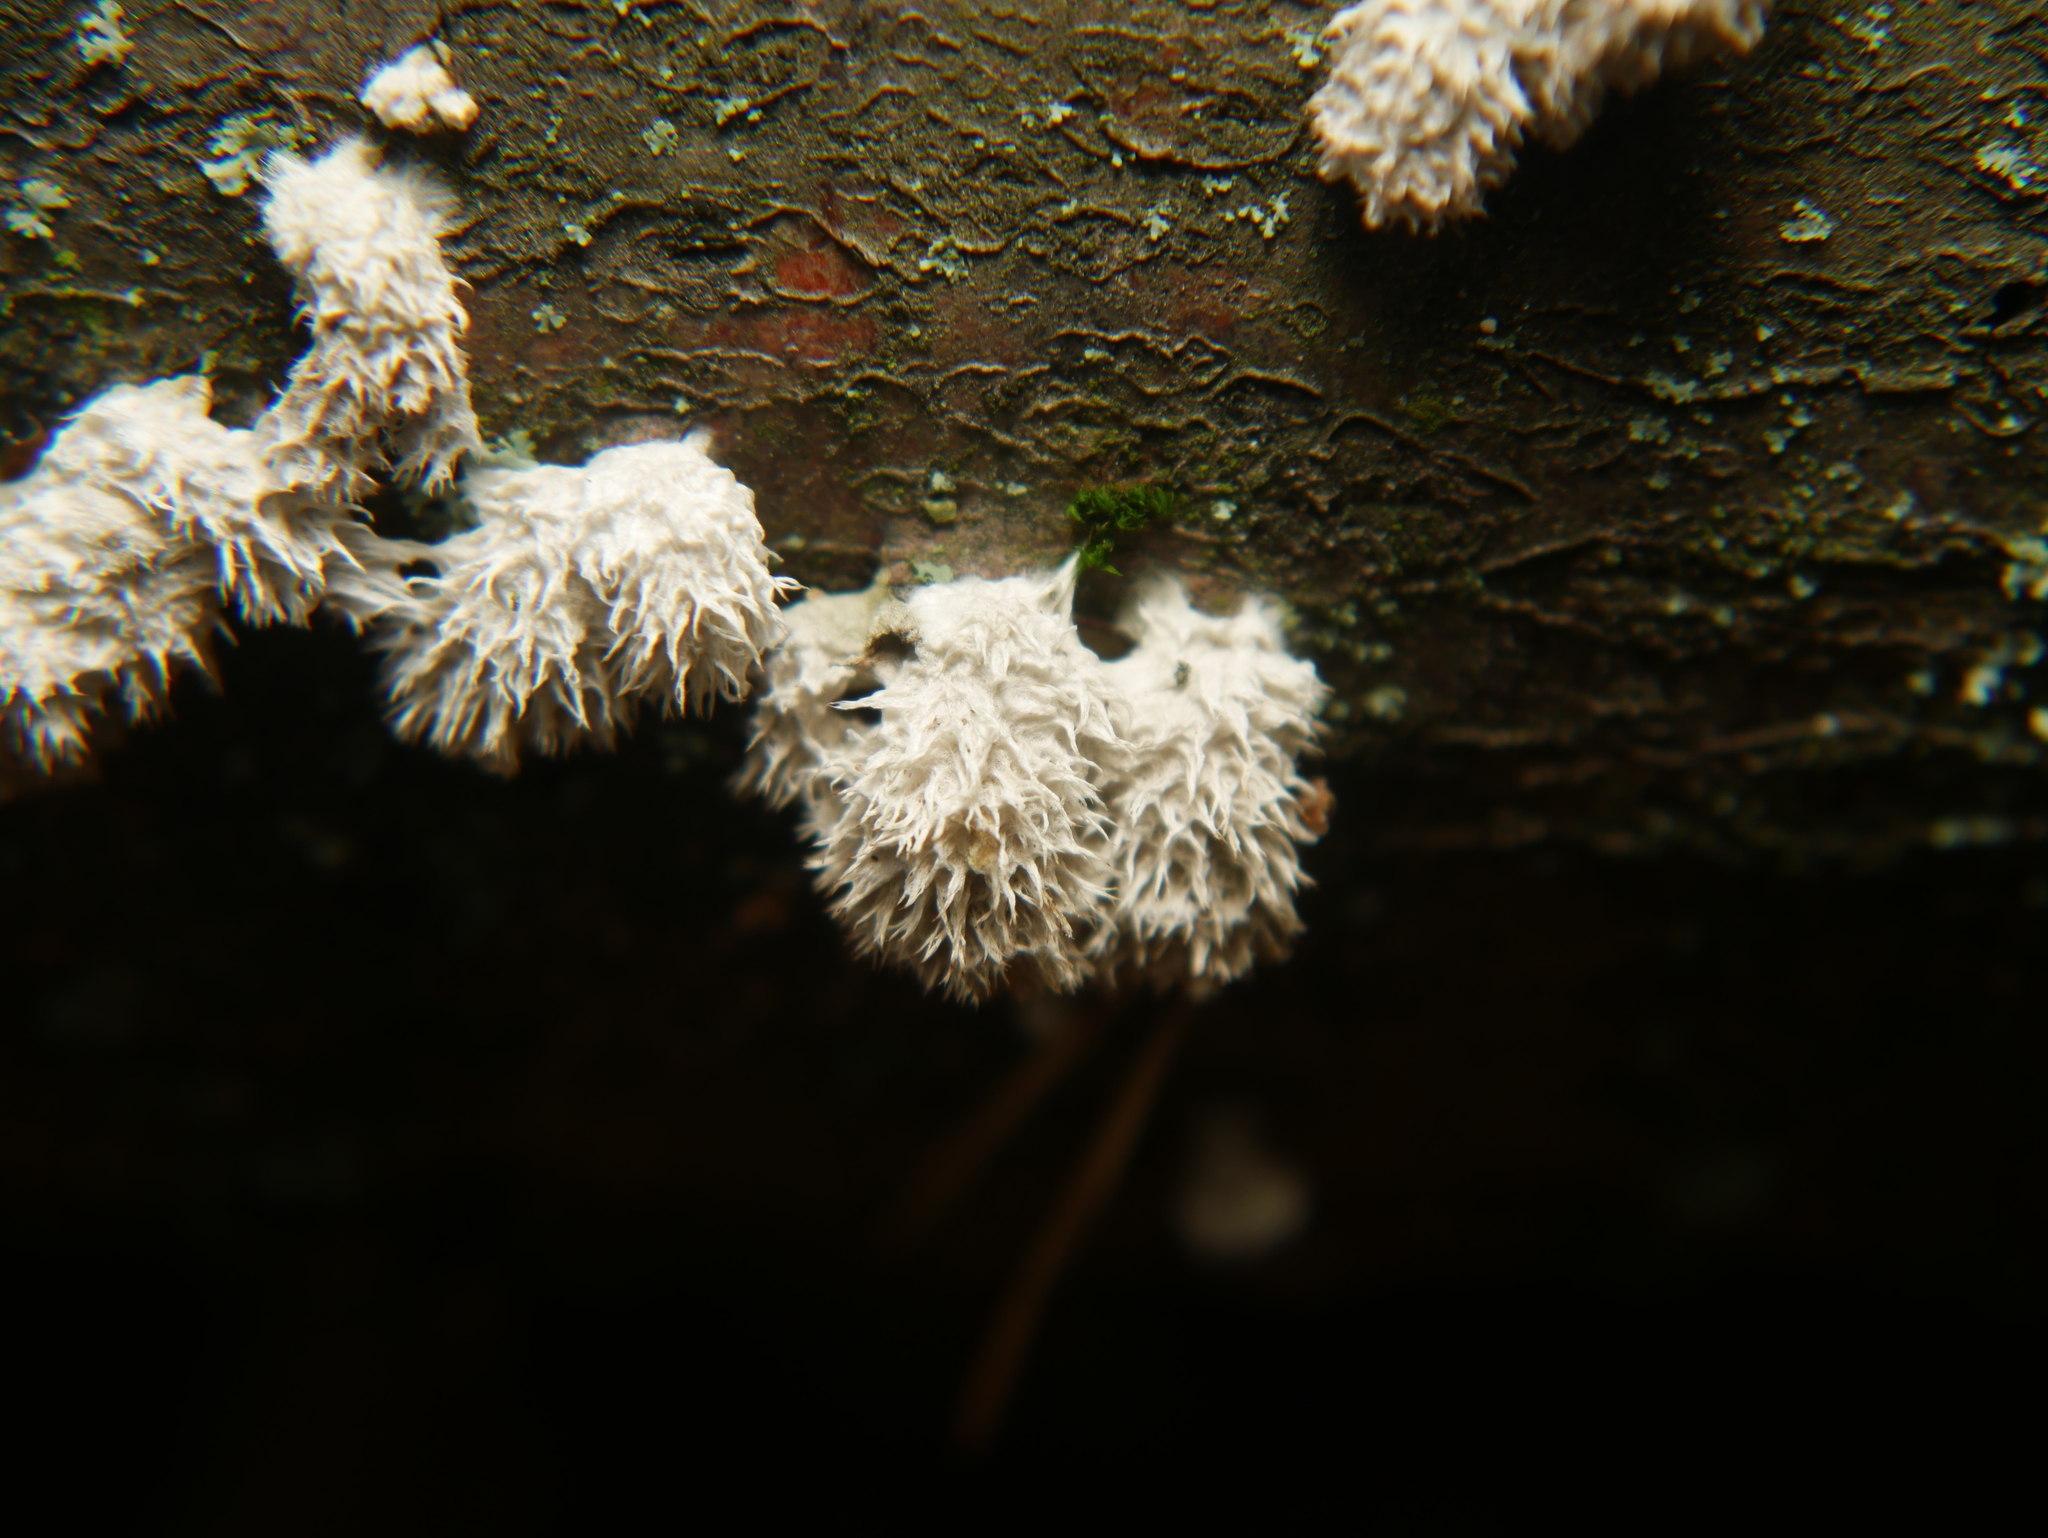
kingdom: Fungi
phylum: Basidiomycota
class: Agaricomycetes
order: Agaricales
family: Schizophyllaceae
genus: Schizophyllum
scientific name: Schizophyllum commune
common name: Common porecrust
